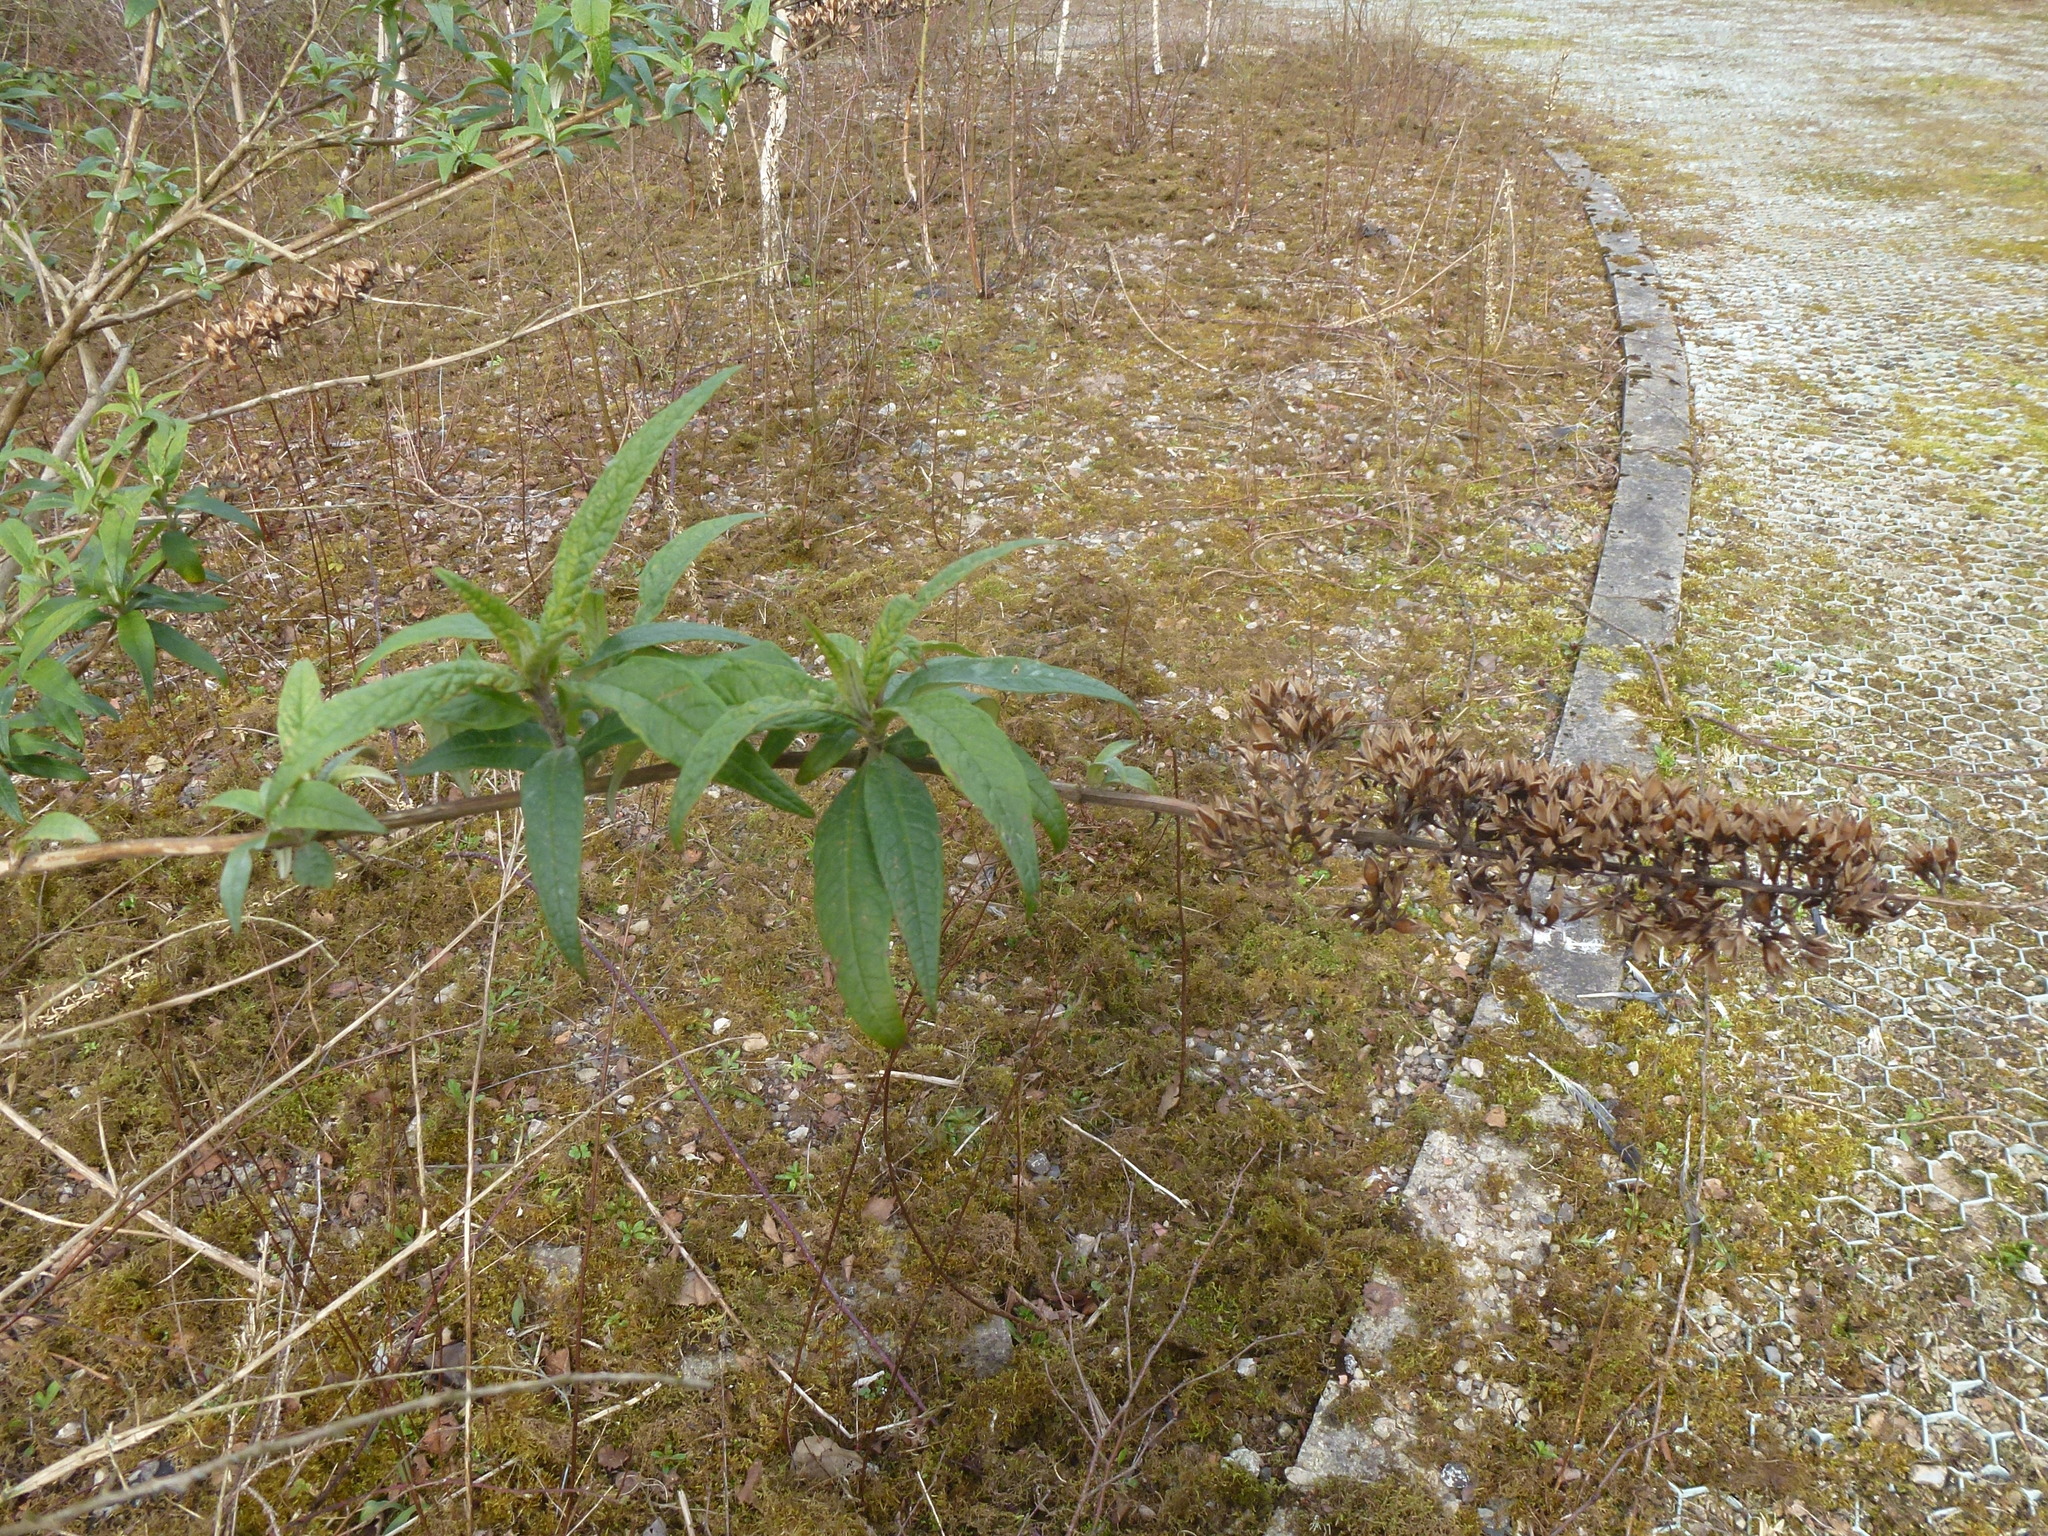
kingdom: Plantae
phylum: Tracheophyta
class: Magnoliopsida
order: Lamiales
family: Scrophulariaceae
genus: Buddleja
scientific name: Buddleja davidii
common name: Butterfly-bush
